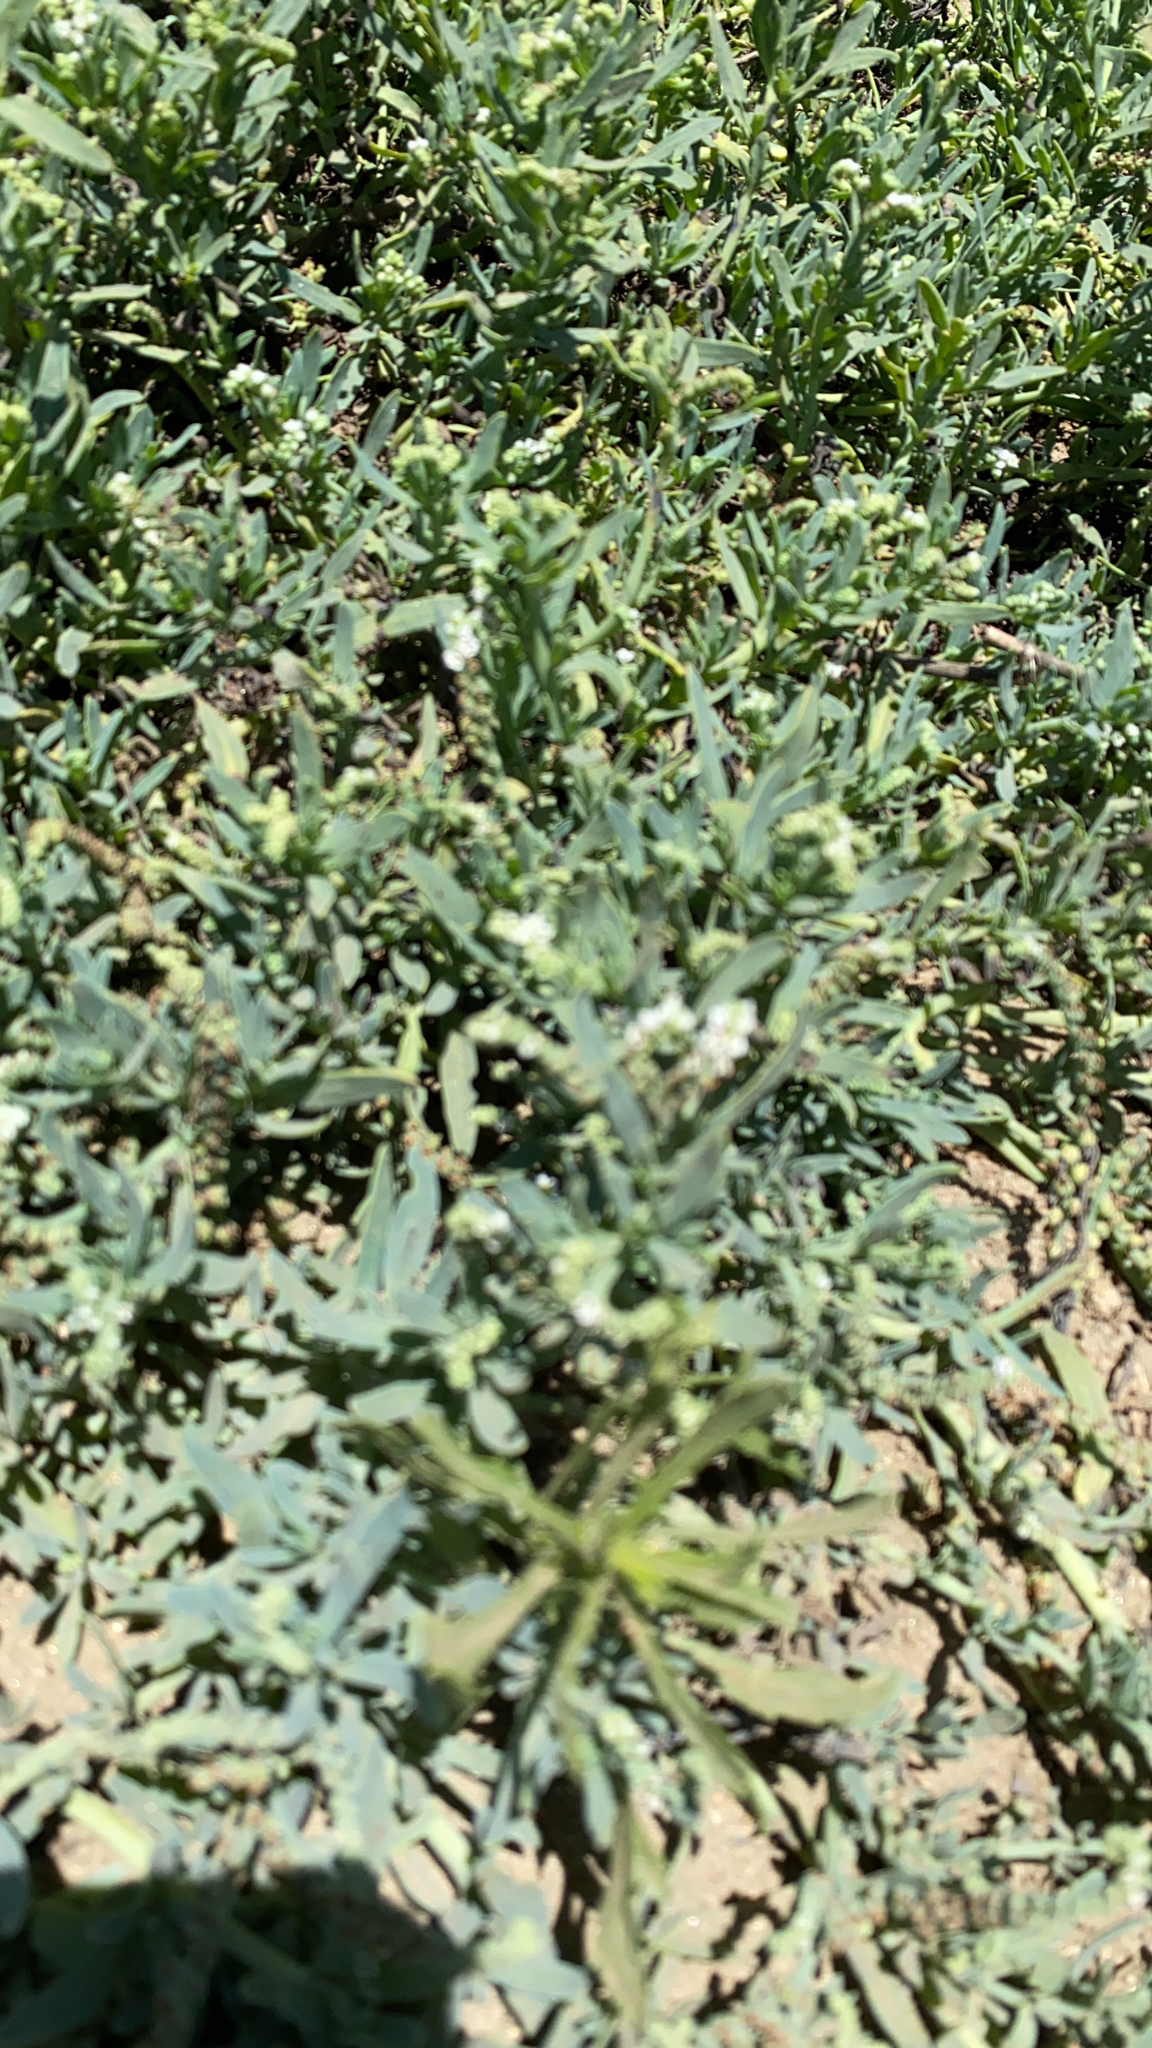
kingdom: Plantae
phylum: Tracheophyta
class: Magnoliopsida
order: Boraginales
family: Heliotropiaceae
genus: Heliotropium
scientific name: Heliotropium curassavicum
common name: Seaside heliotrope
